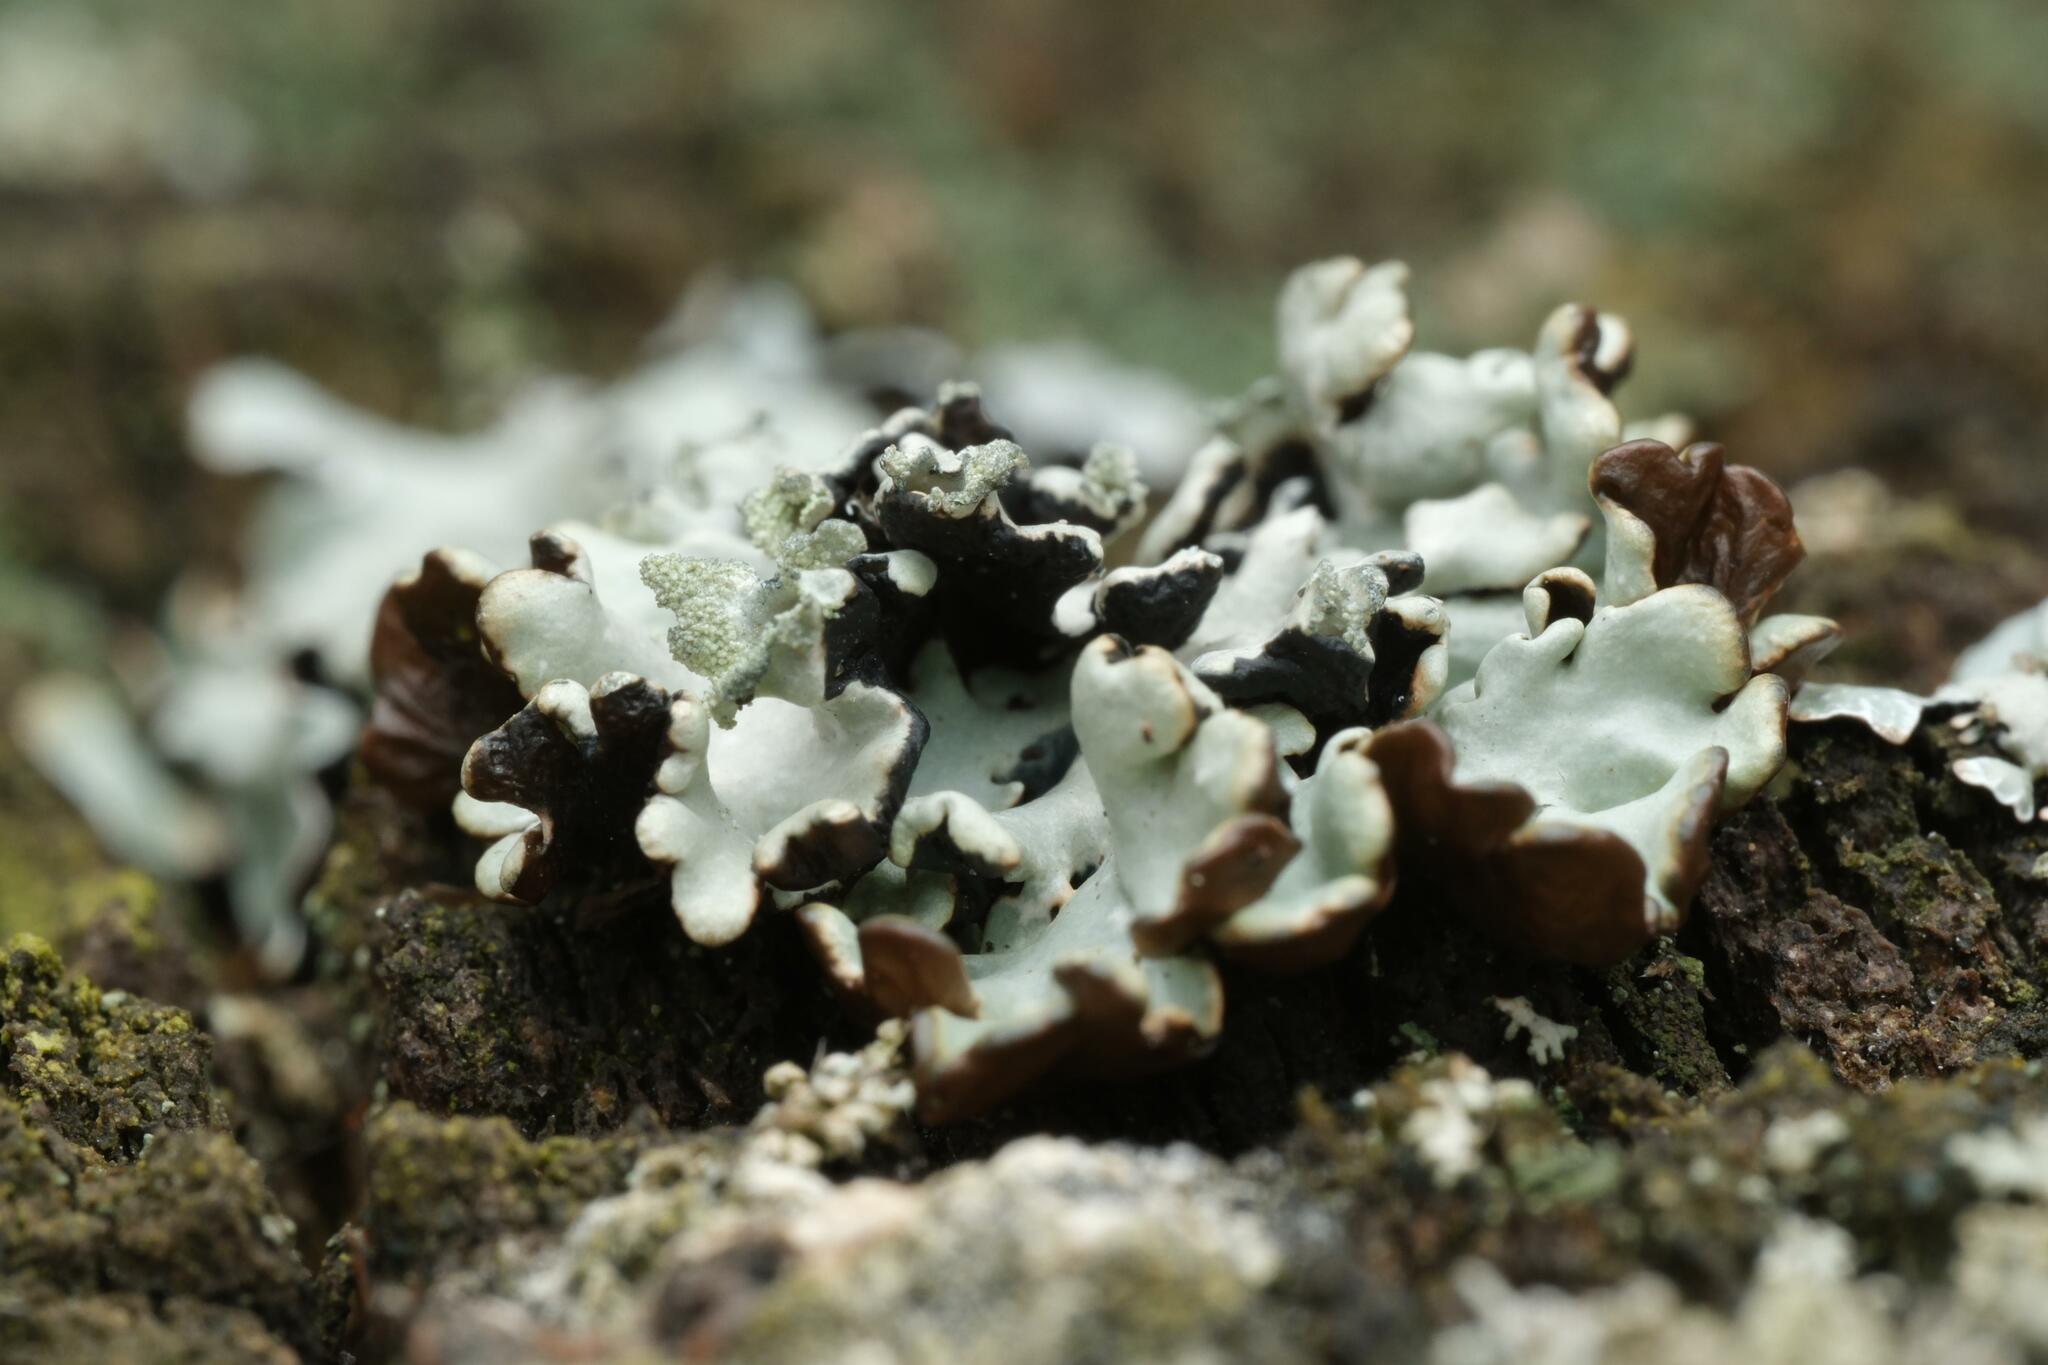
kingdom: Fungi
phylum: Ascomycota
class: Lecanoromycetes
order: Lecanorales
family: Parmeliaceae
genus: Hypogymnia
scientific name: Hypogymnia physodes
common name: Dark crottle
